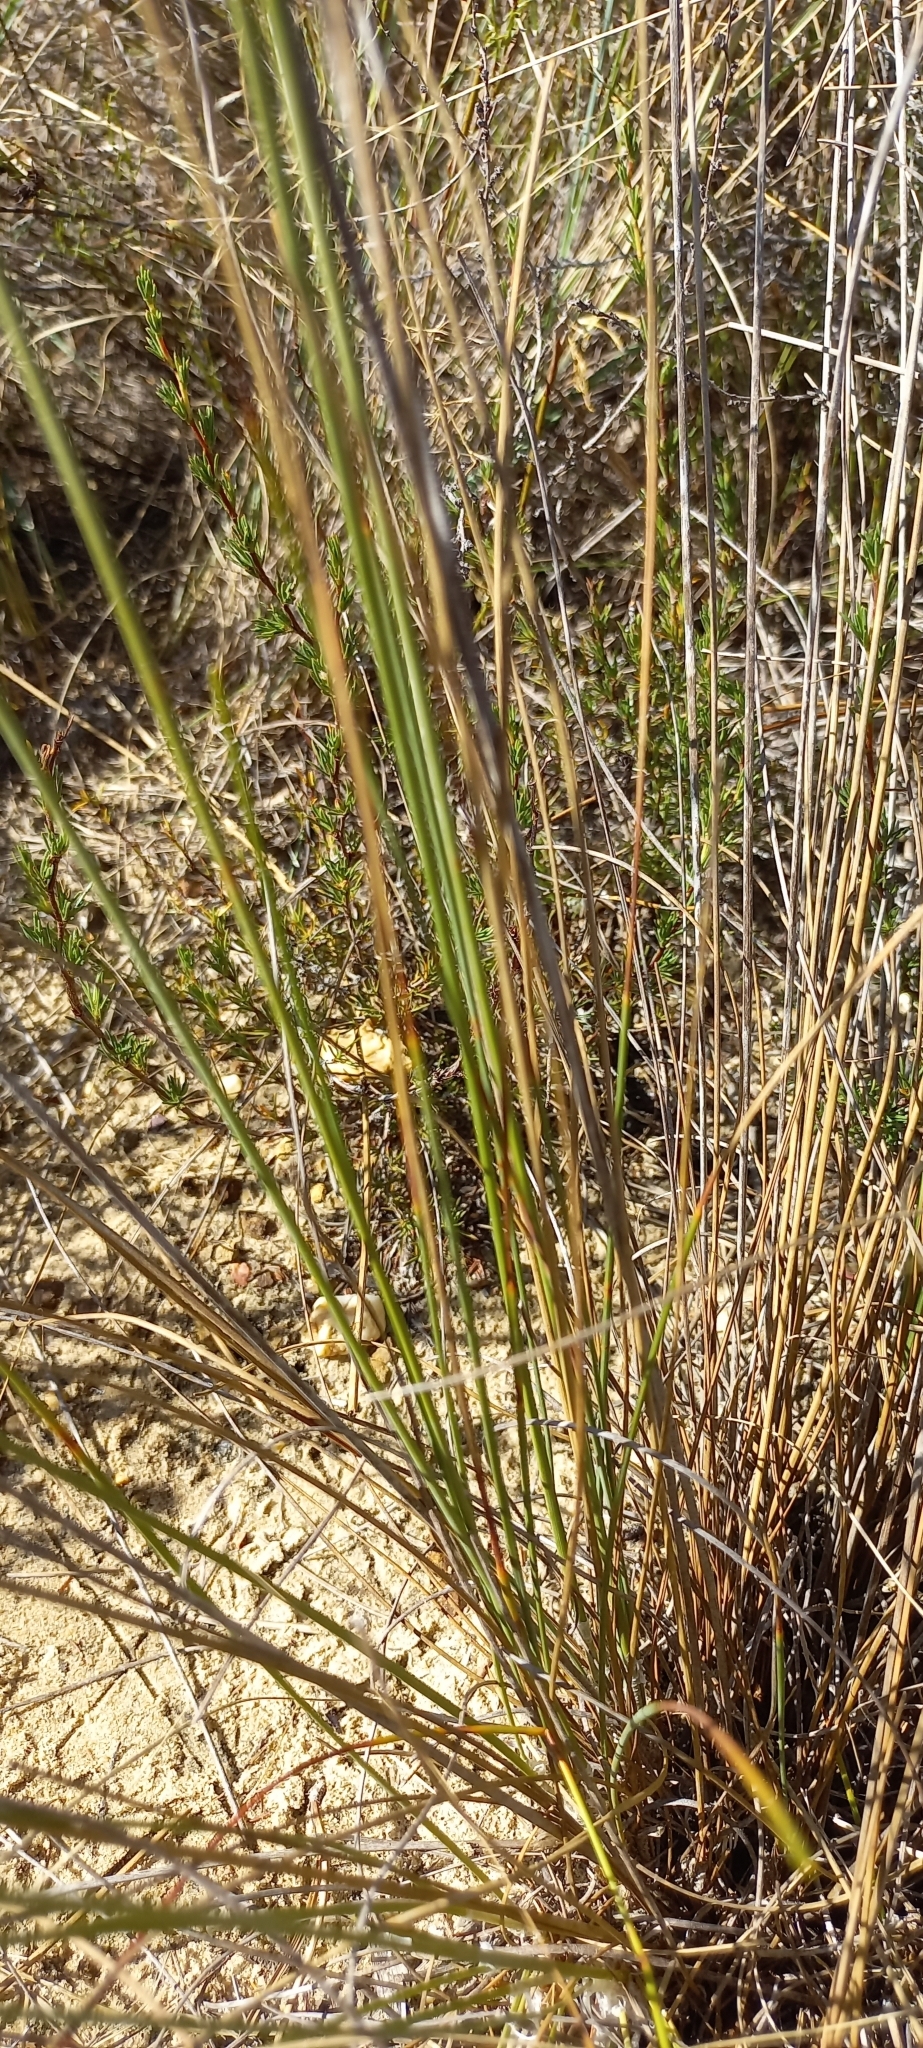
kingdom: Plantae
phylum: Tracheophyta
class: Liliopsida
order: Poales
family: Cyperaceae
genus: Ficinia
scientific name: Ficinia deusta
